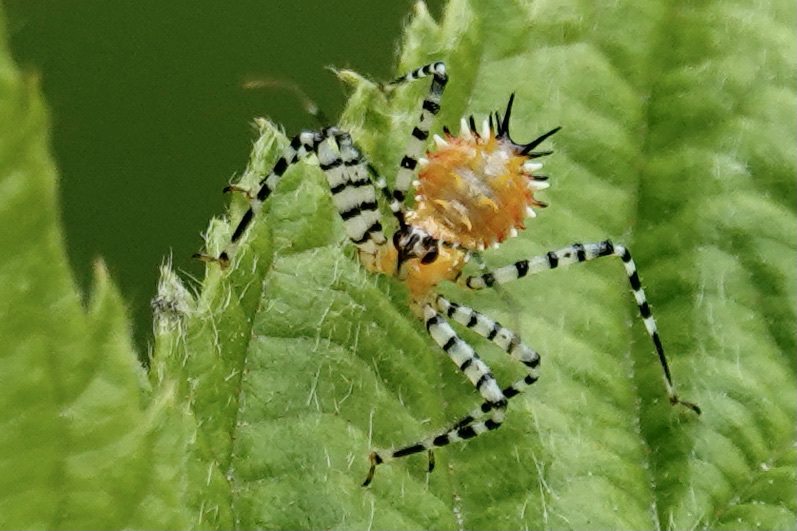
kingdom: Animalia
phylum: Arthropoda
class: Insecta
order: Hemiptera
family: Reduviidae
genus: Pselliopus
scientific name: Pselliopus cinctus
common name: Ringed assassin bug
